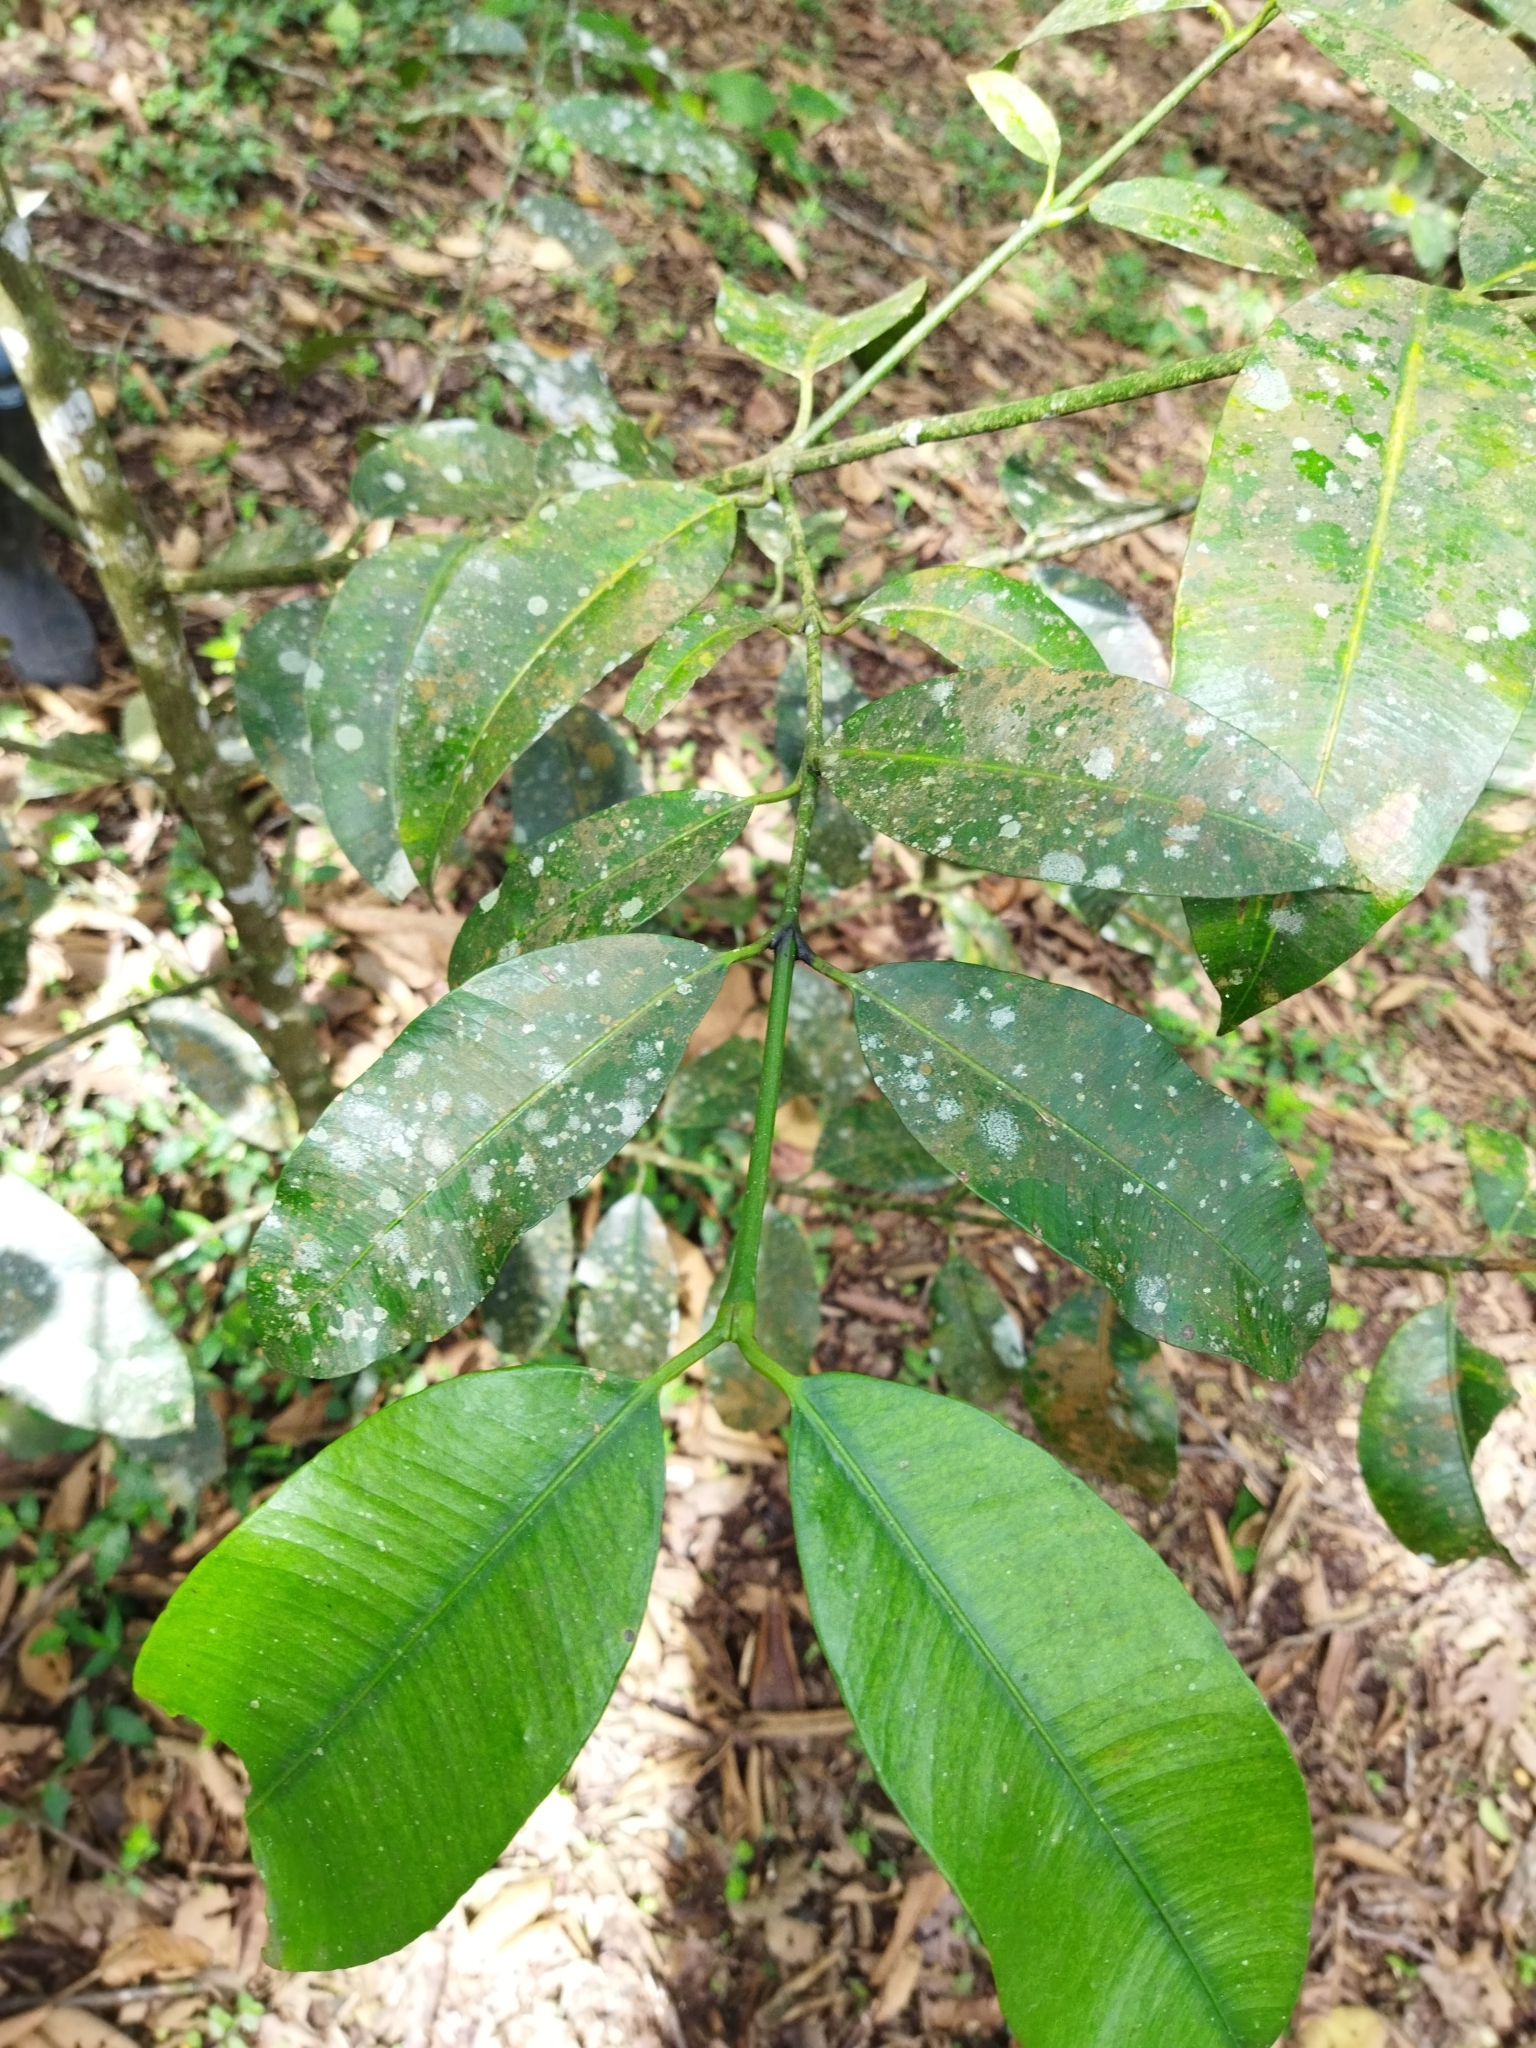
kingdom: Plantae
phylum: Tracheophyta
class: Magnoliopsida
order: Malpighiales
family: Clusiaceae
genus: Garcinia
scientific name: Garcinia madruno
